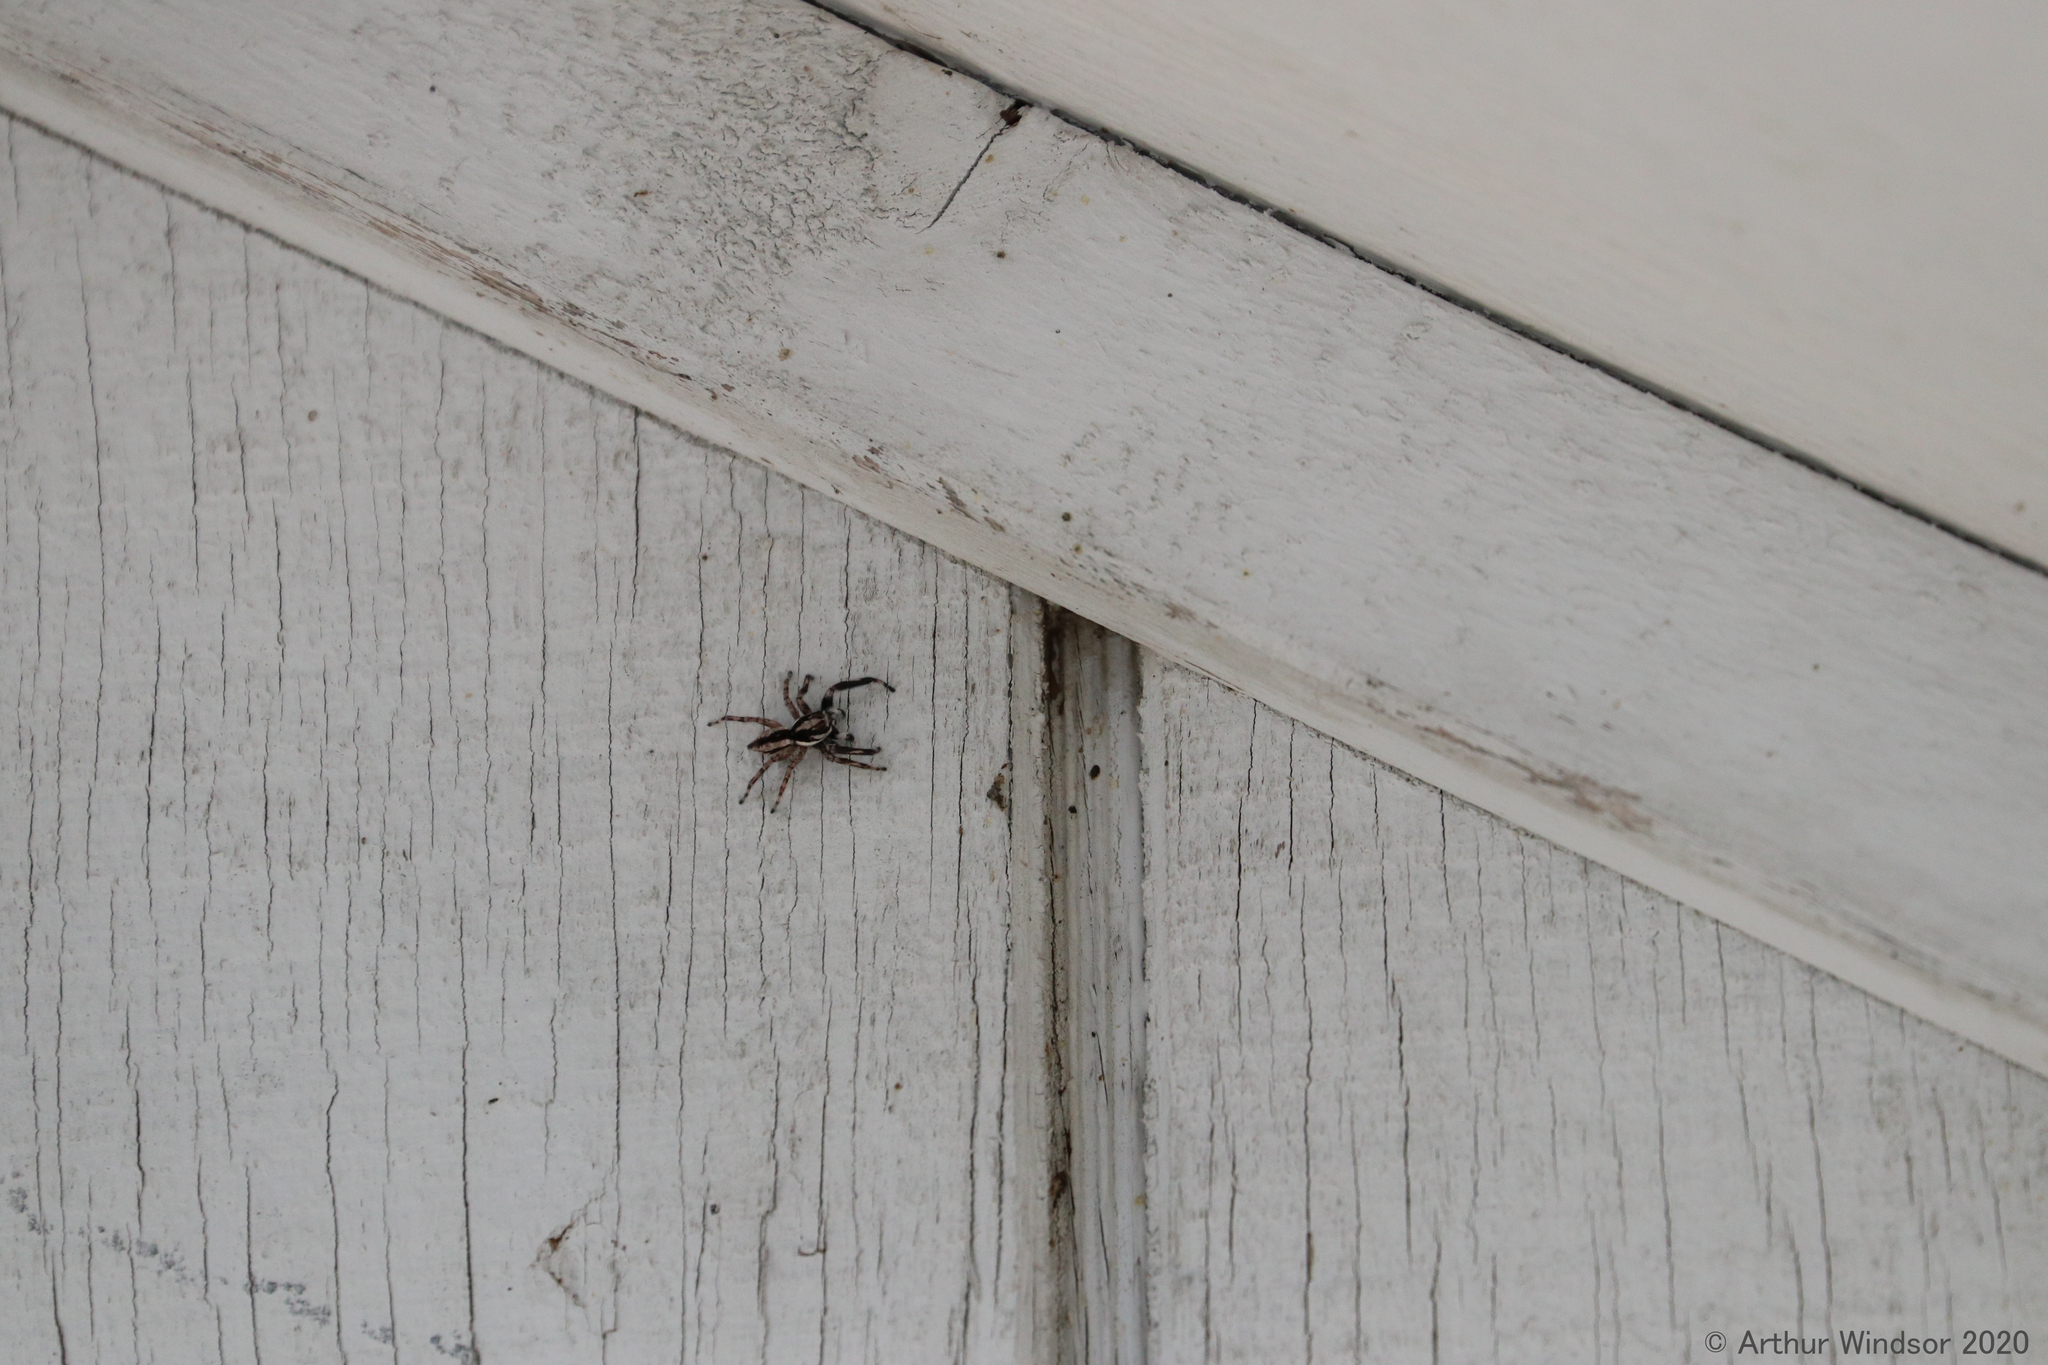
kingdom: Animalia
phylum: Arthropoda
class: Arachnida
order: Araneae
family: Salticidae
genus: Menemerus
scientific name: Menemerus bivittatus
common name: Gray wall jumper
